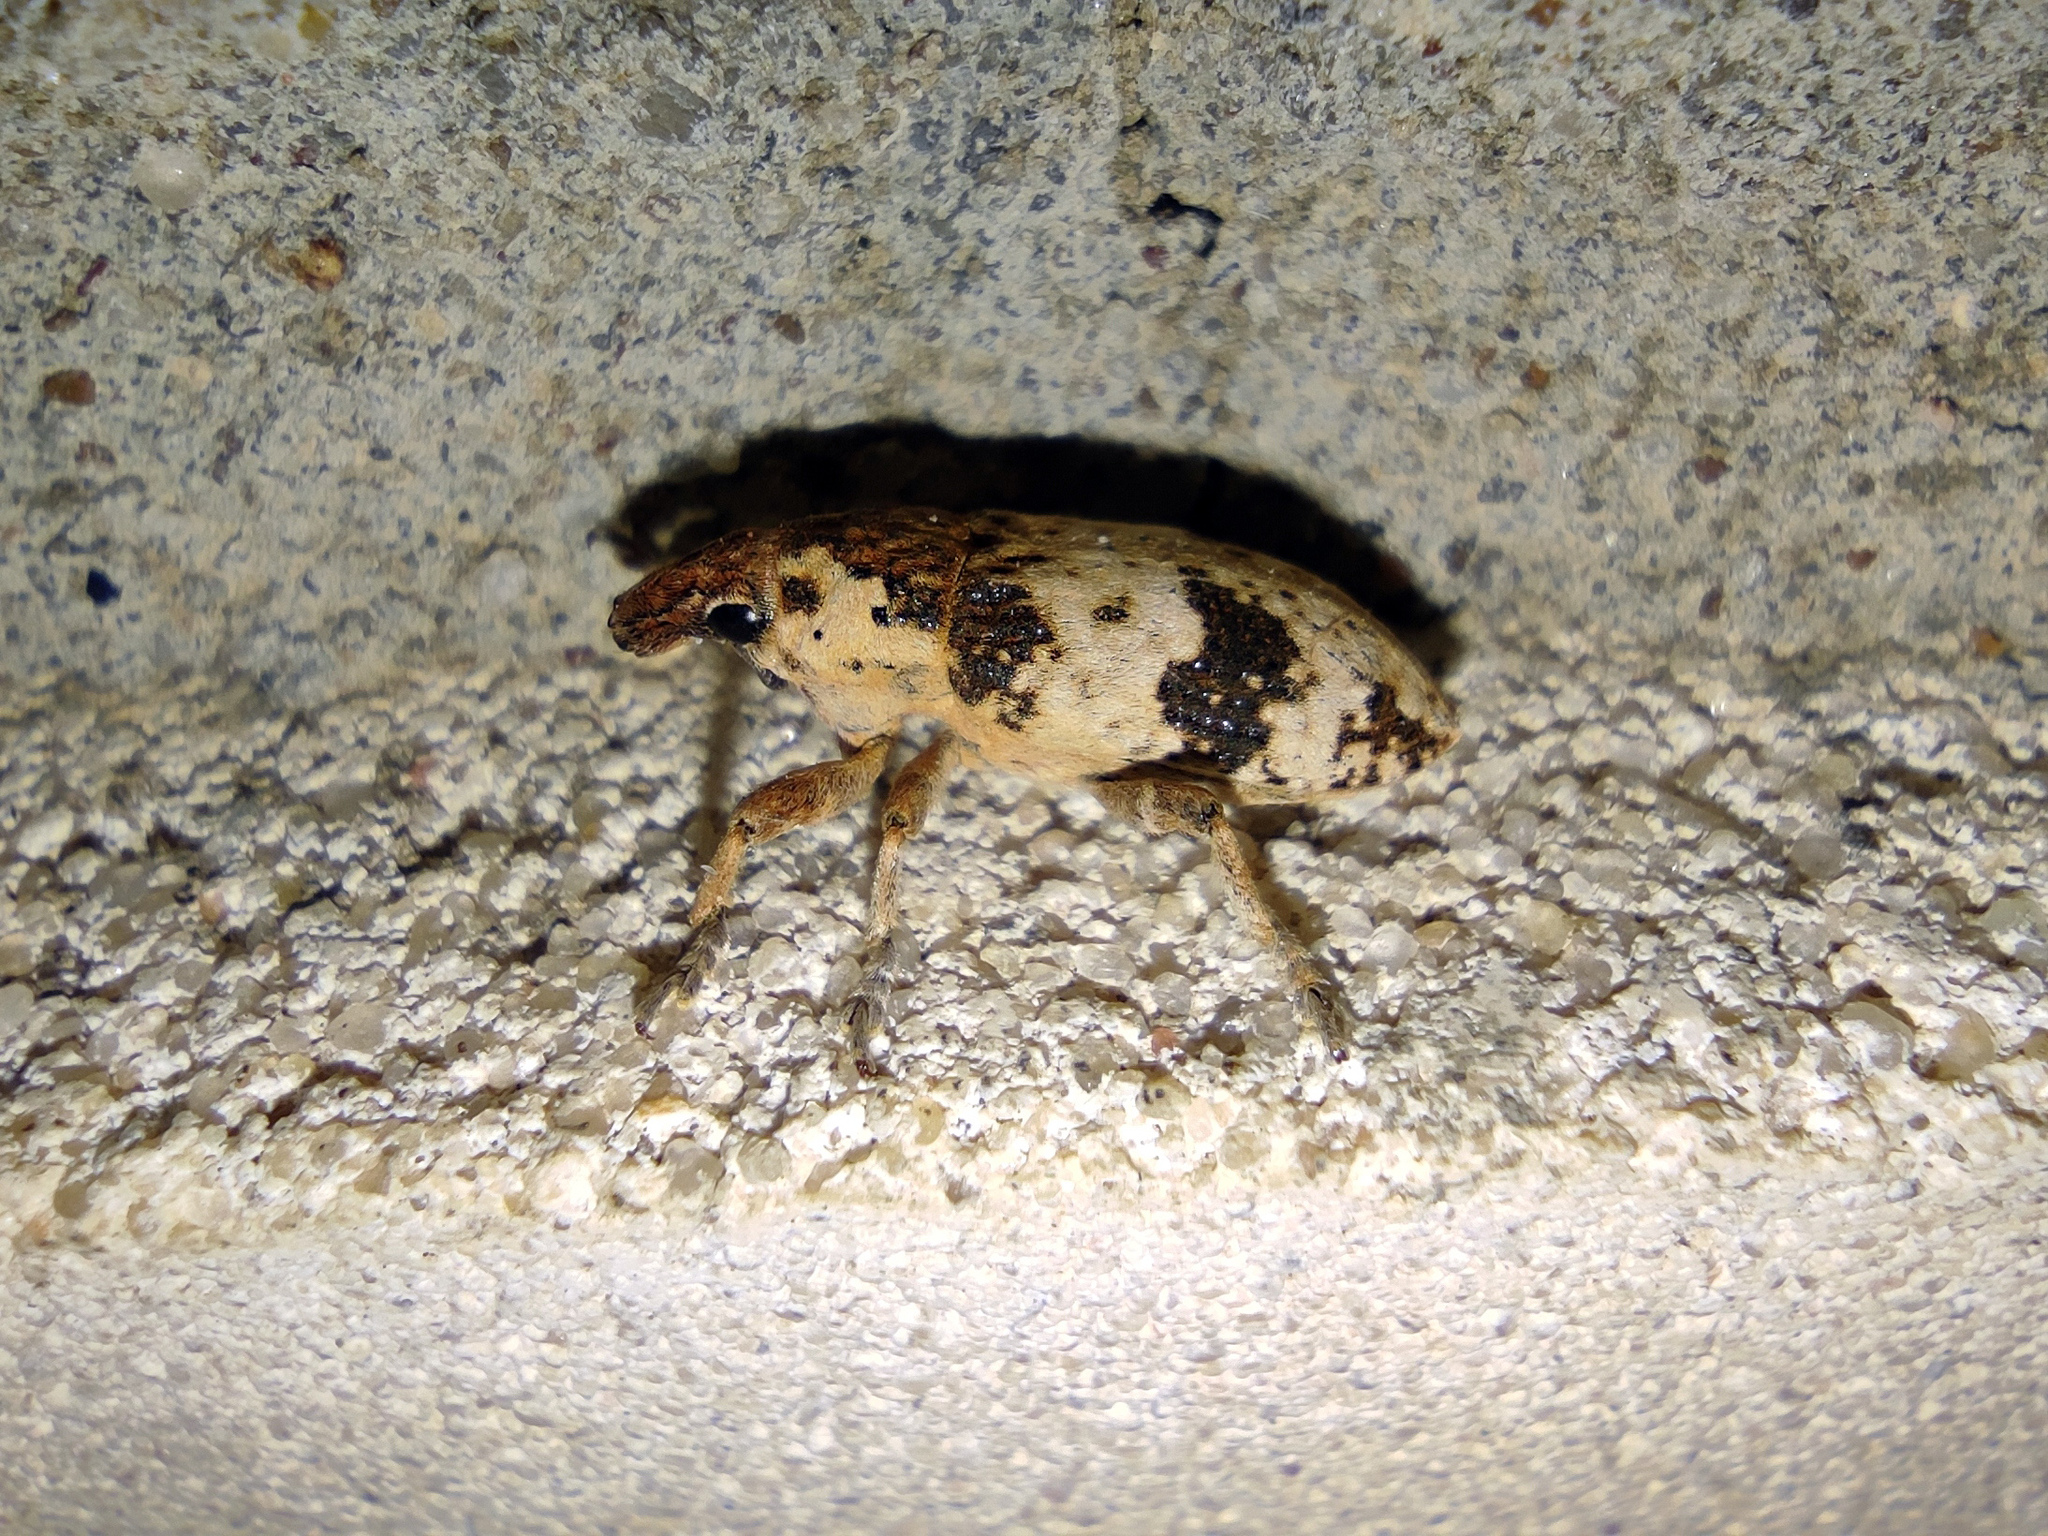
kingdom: Animalia
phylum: Arthropoda
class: Insecta
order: Coleoptera
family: Curculionidae
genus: Bothynoderes
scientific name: Bothynoderes affinis
